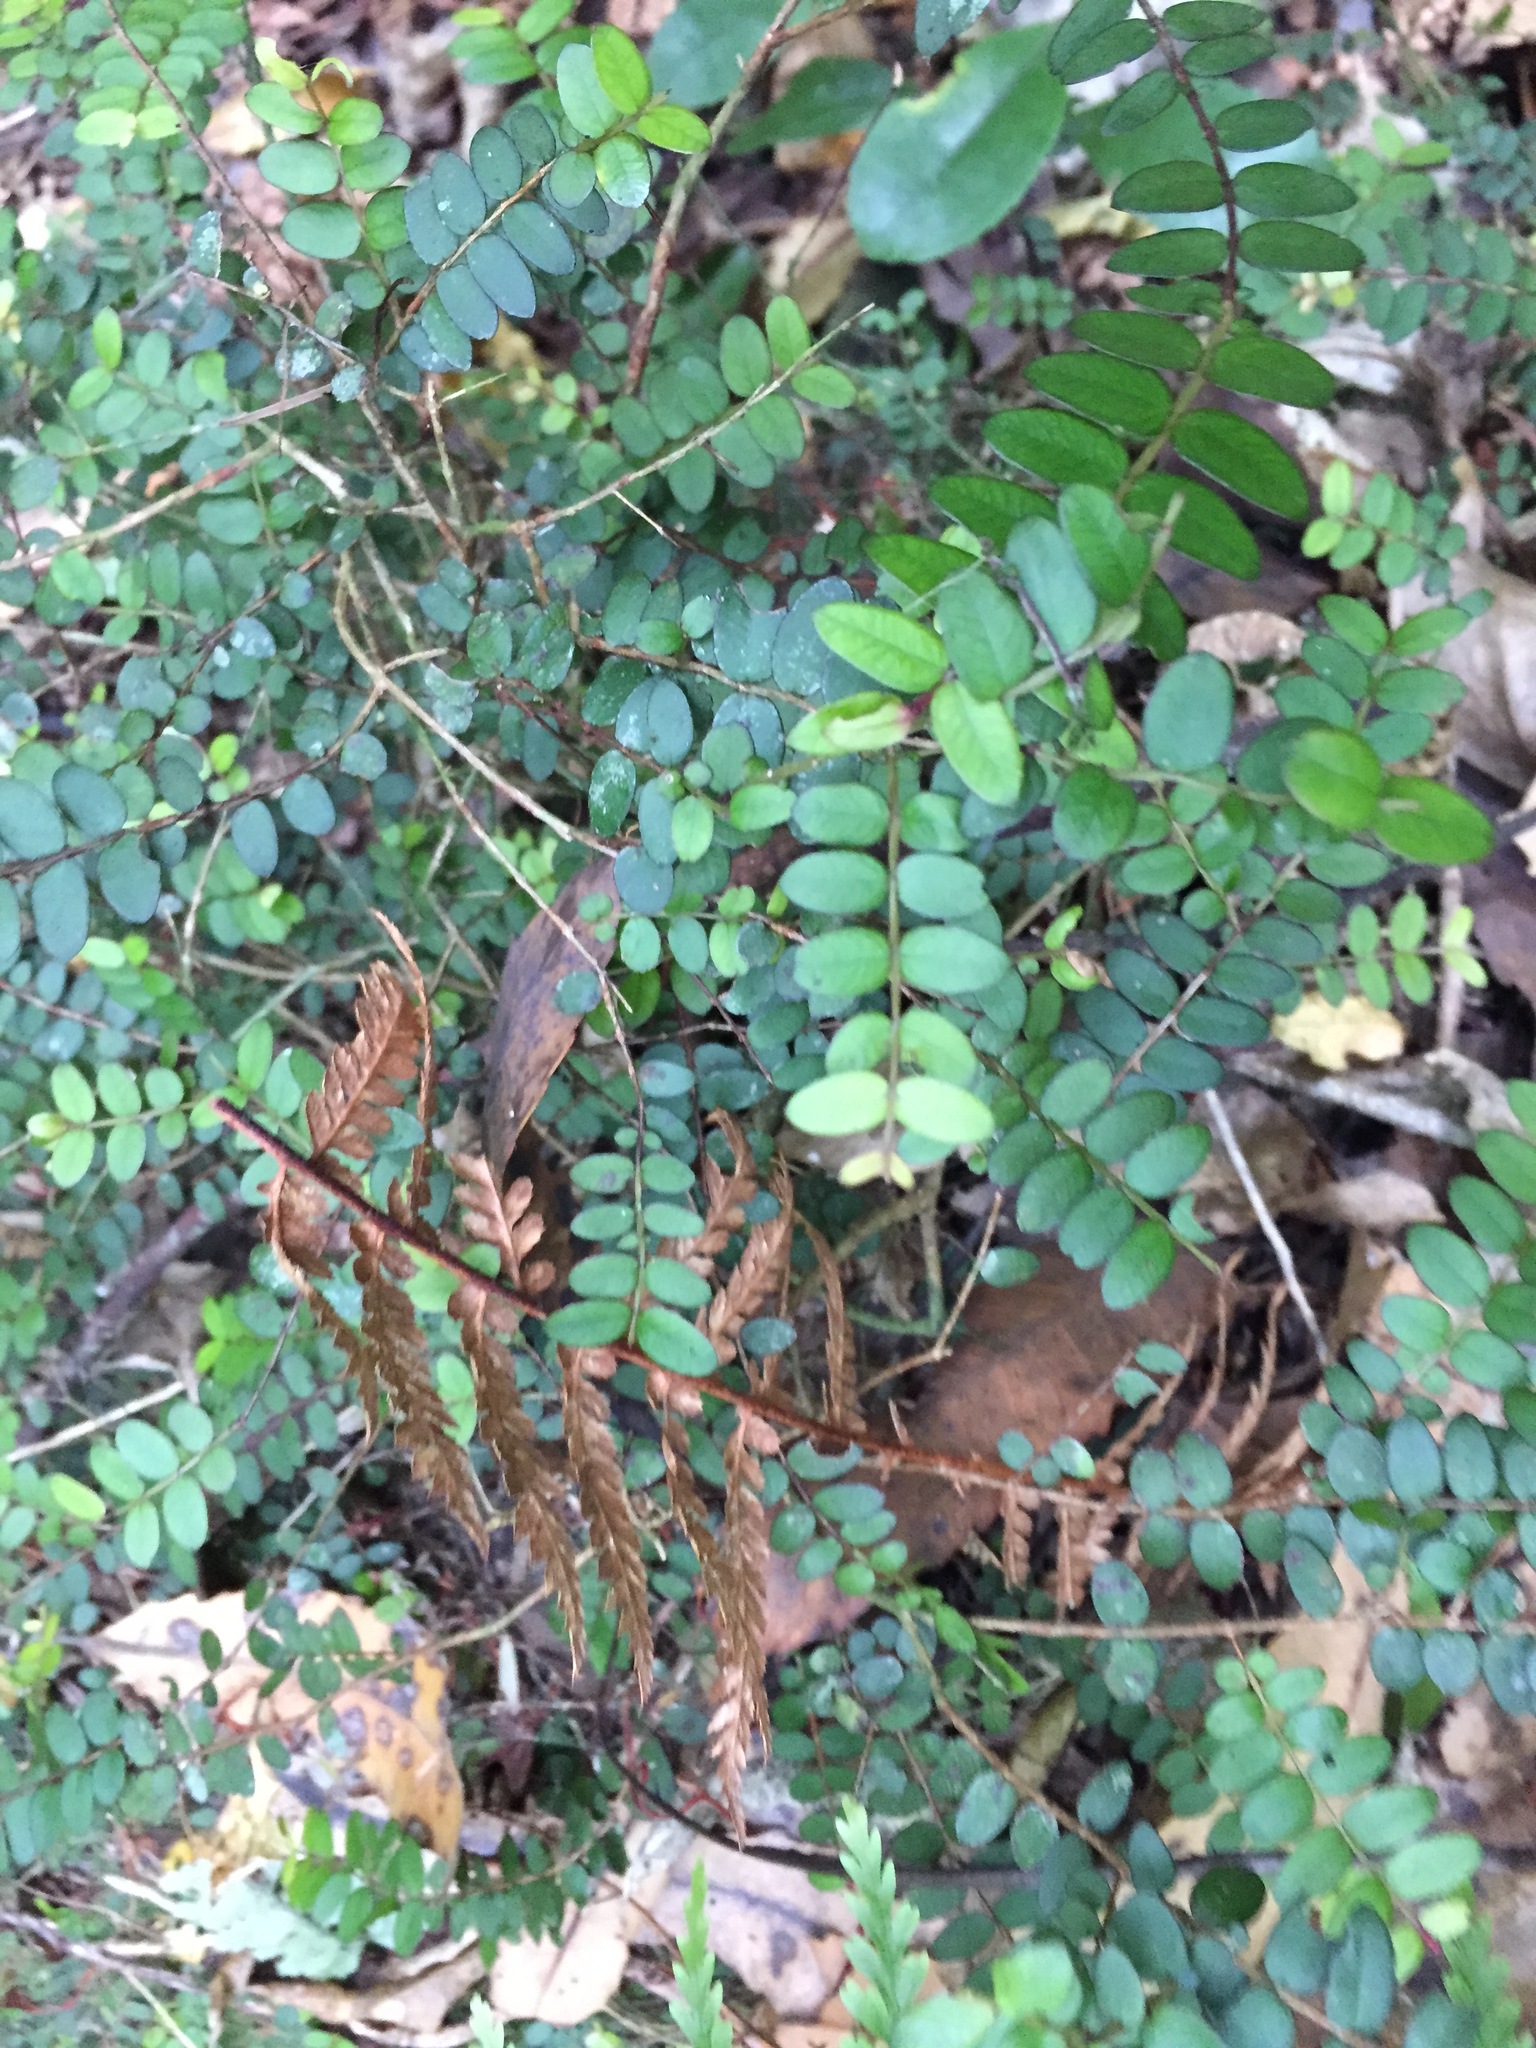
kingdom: Plantae
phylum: Tracheophyta
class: Magnoliopsida
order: Myrtales
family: Myrtaceae
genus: Metrosideros
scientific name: Metrosideros diffusa
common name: Small ratavine
